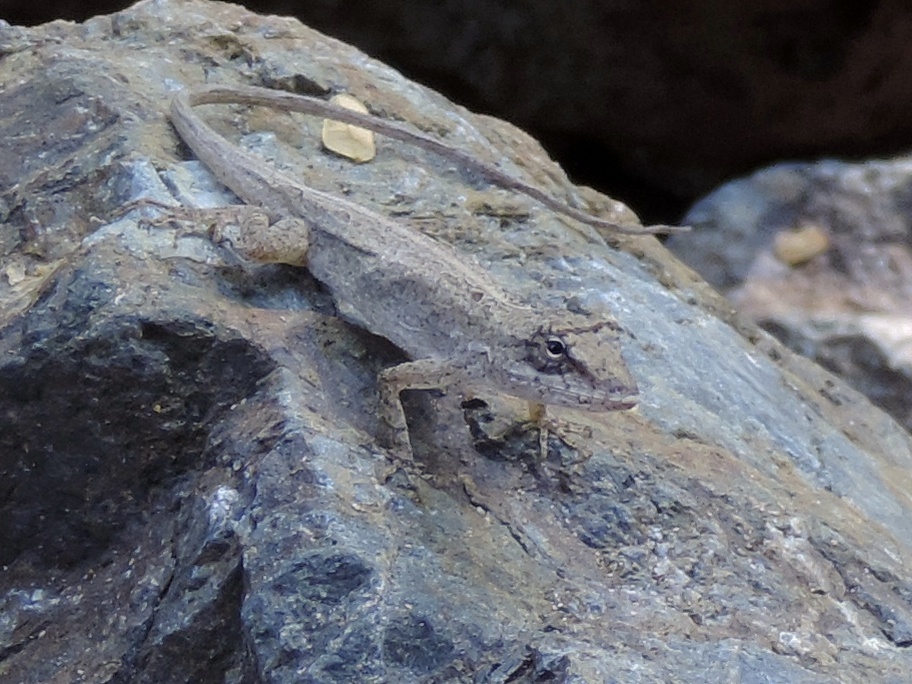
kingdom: Animalia
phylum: Chordata
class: Squamata
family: Dactyloidae
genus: Anolis
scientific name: Anolis nebulosus
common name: Clouded anole
